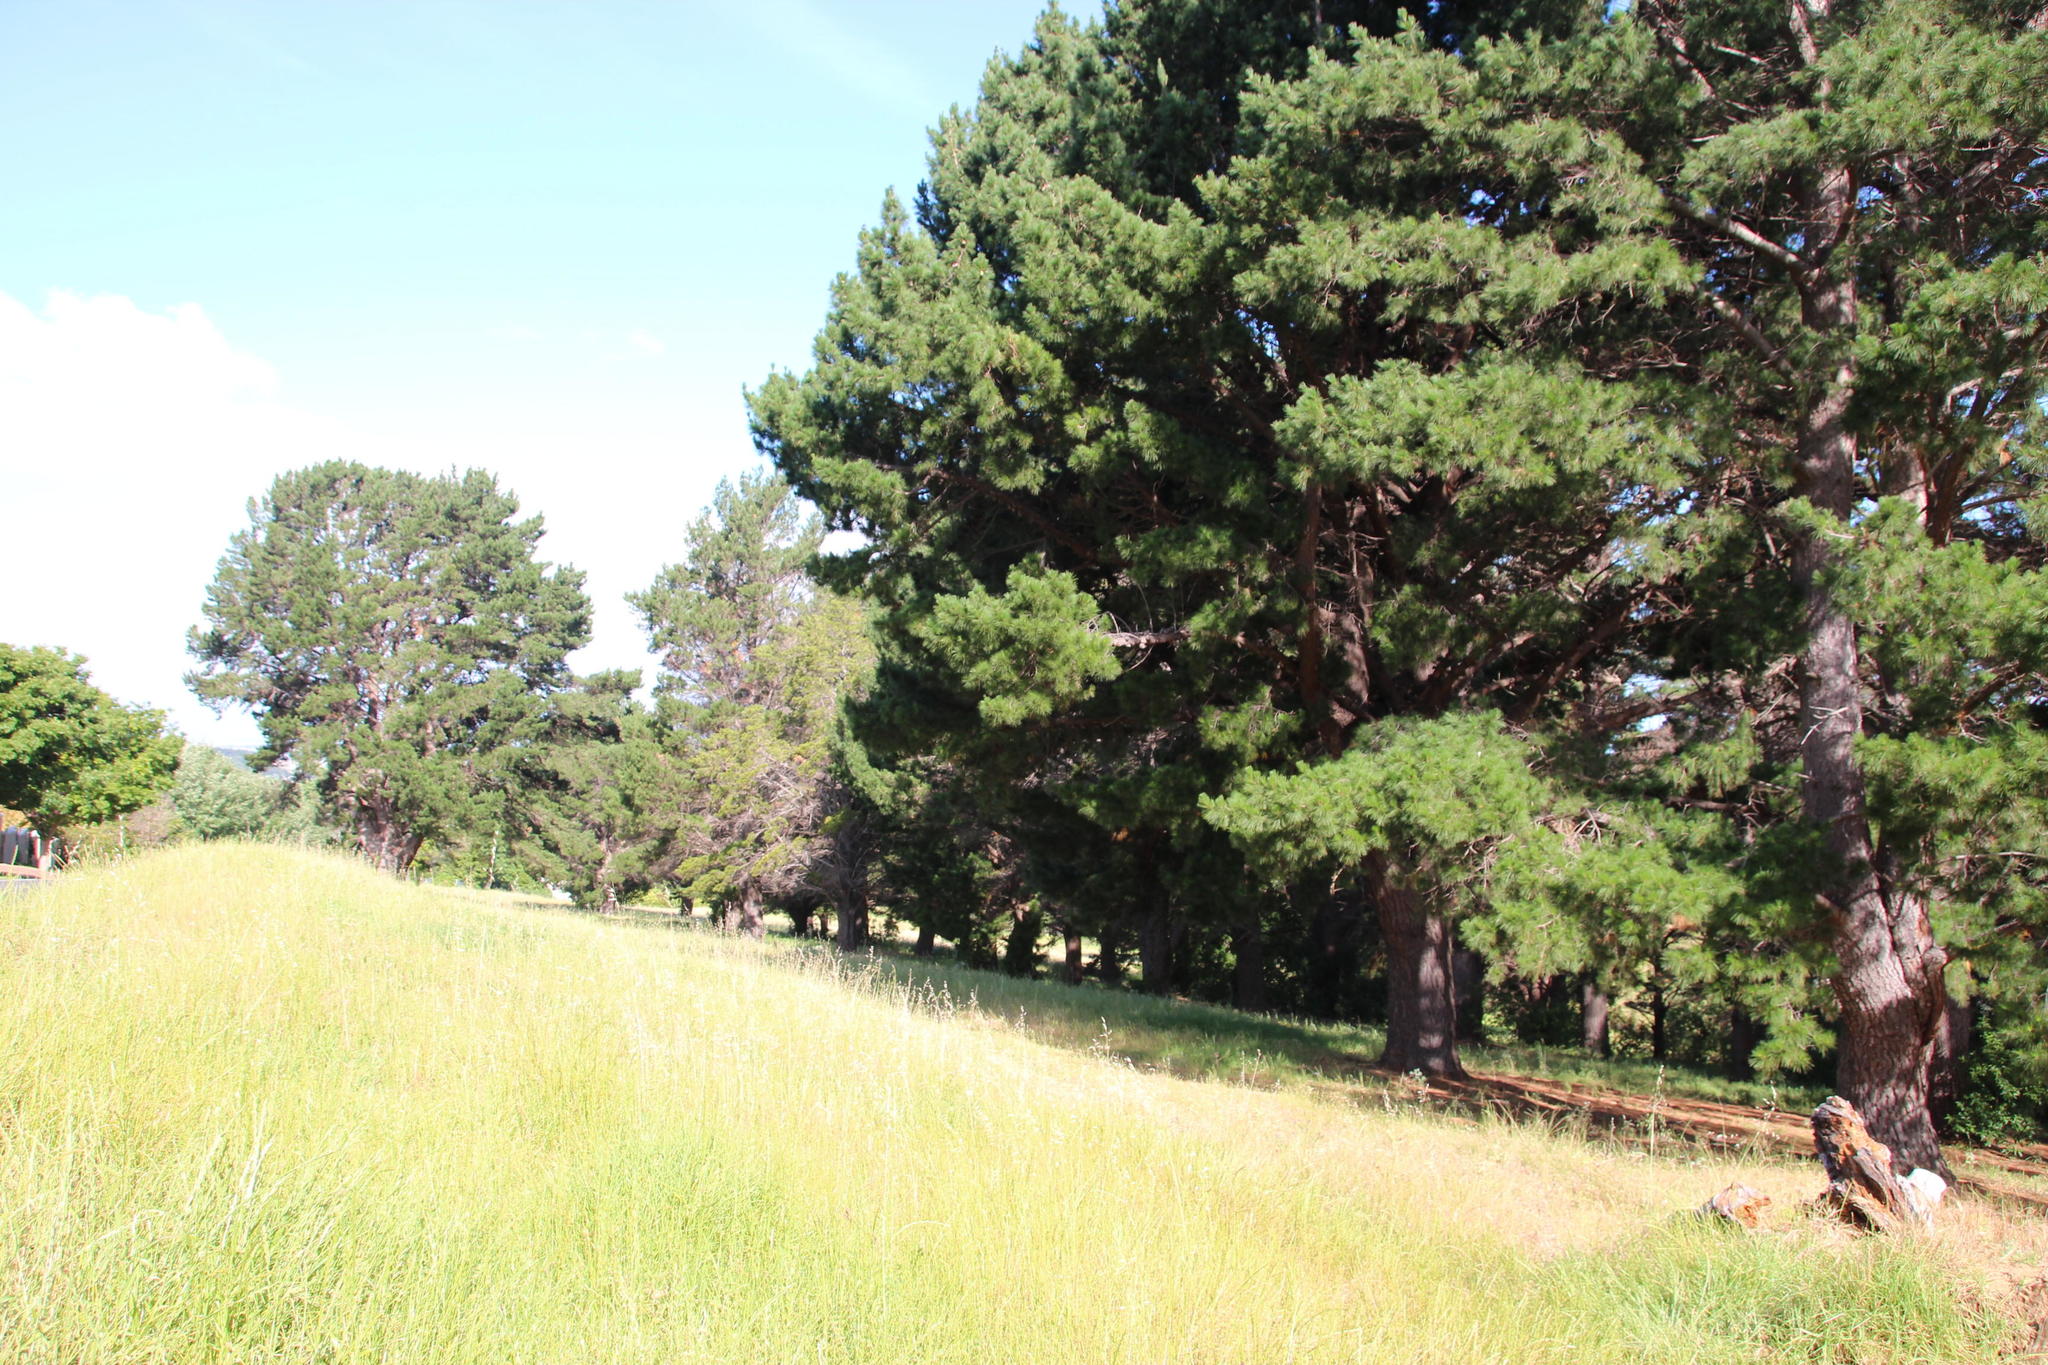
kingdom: Plantae
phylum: Tracheophyta
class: Pinopsida
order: Pinales
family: Pinaceae
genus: Pinus
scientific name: Pinus radiata
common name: Monterey pine
